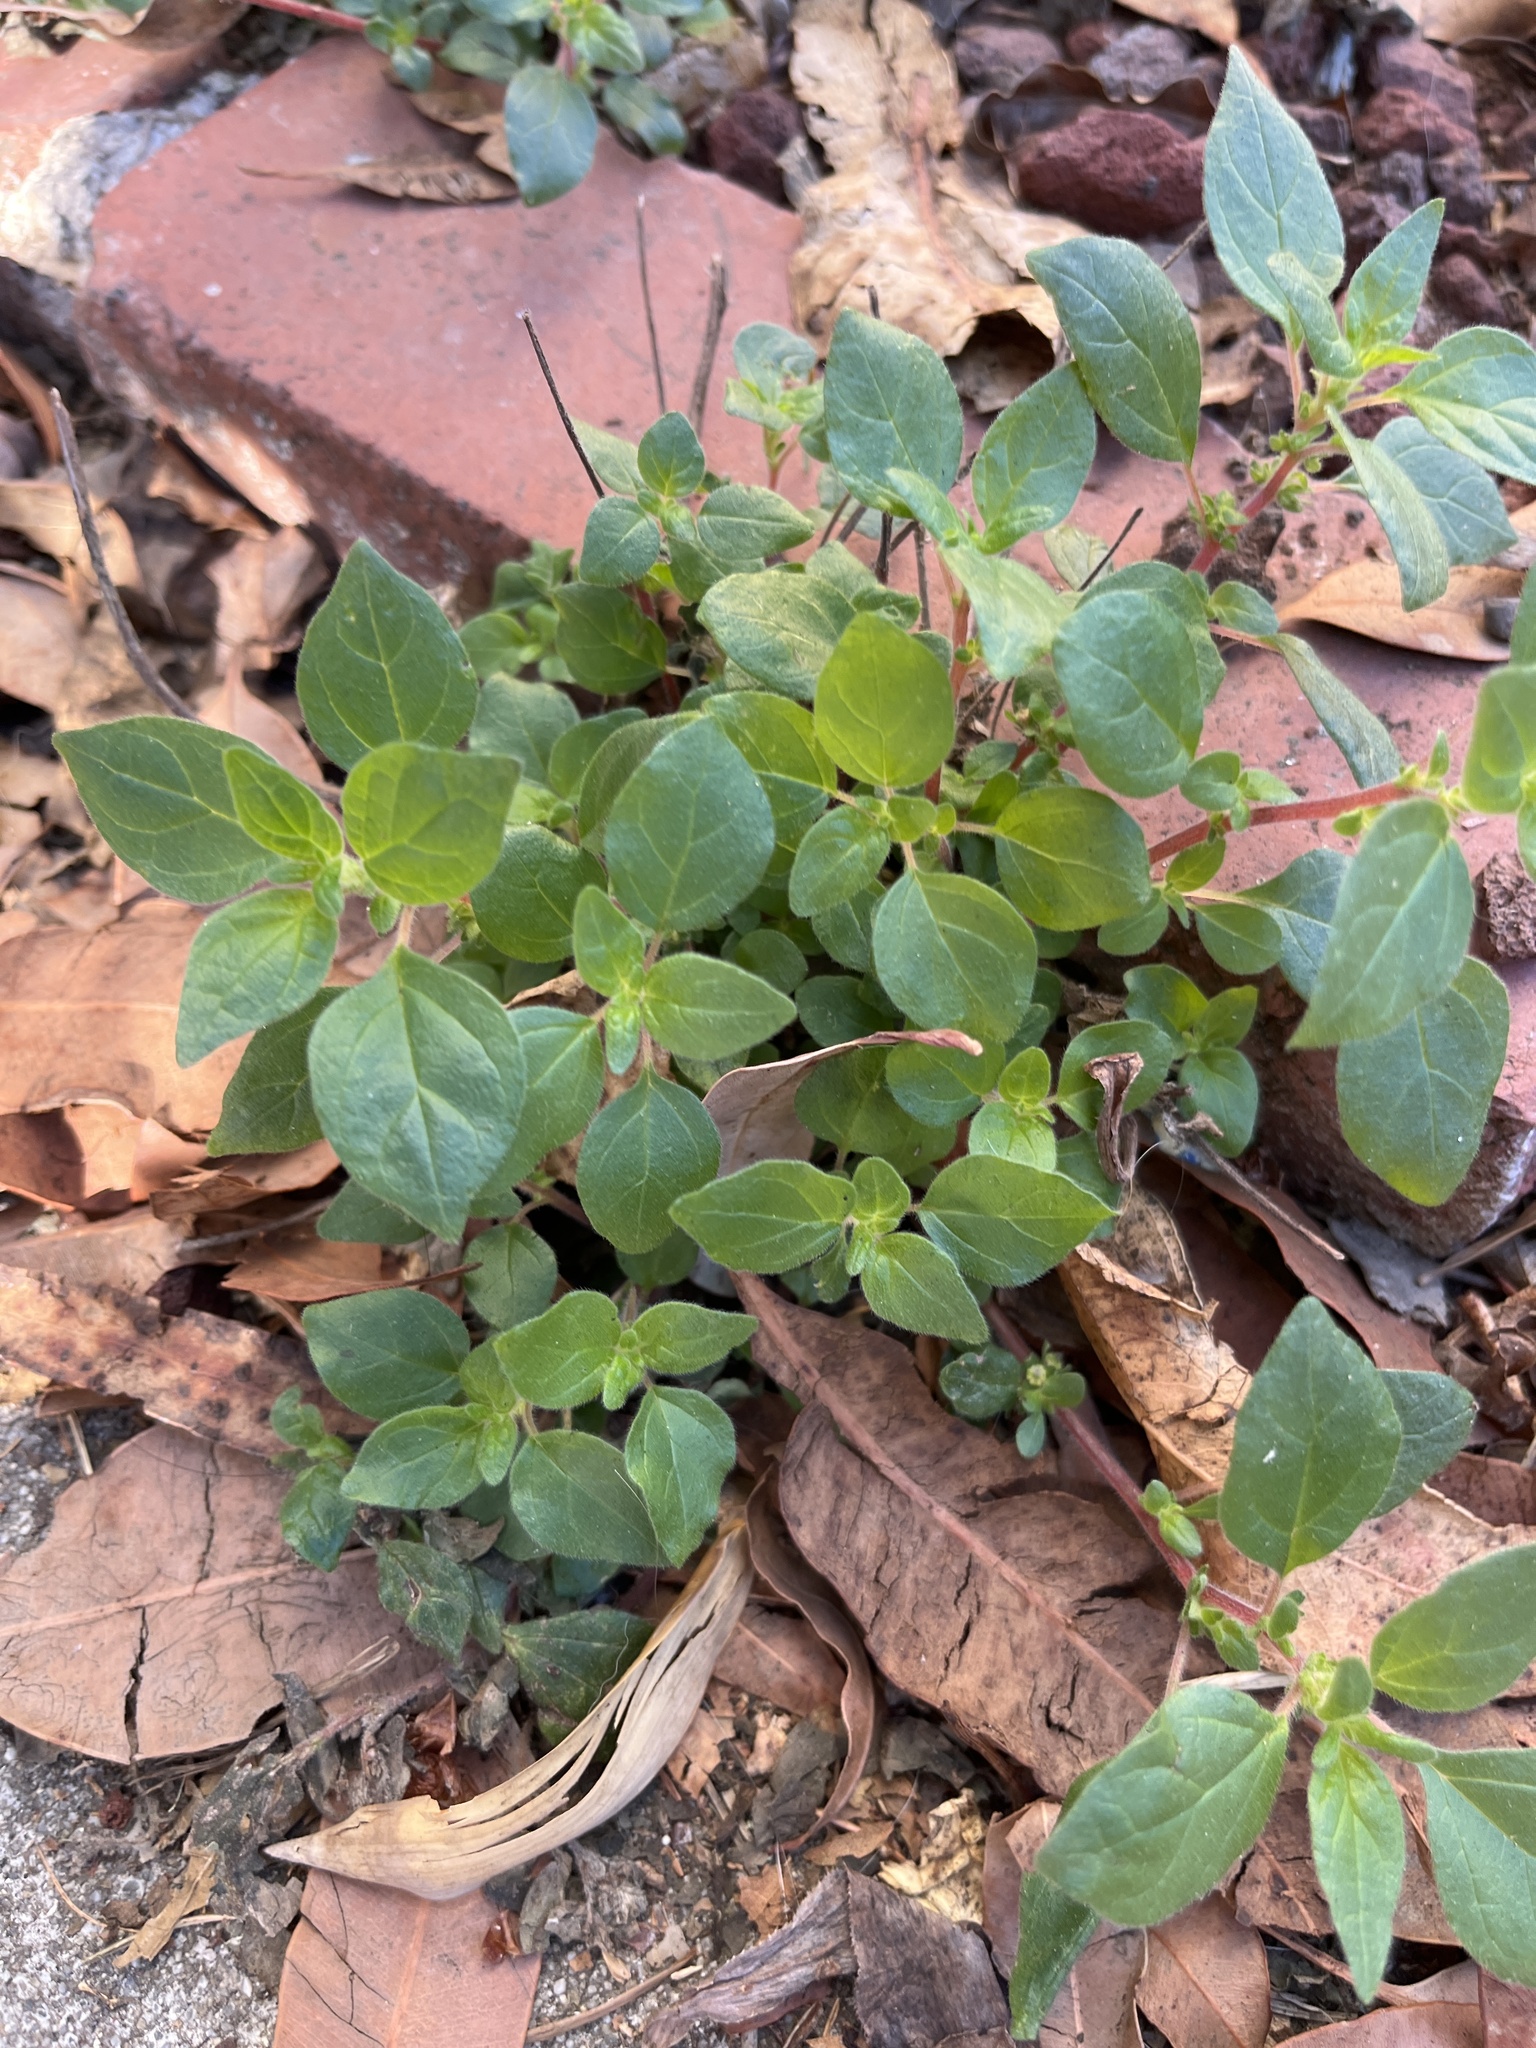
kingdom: Plantae
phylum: Tracheophyta
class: Magnoliopsida
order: Rosales
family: Urticaceae
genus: Parietaria
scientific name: Parietaria judaica
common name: Pellitory-of-the-wall
